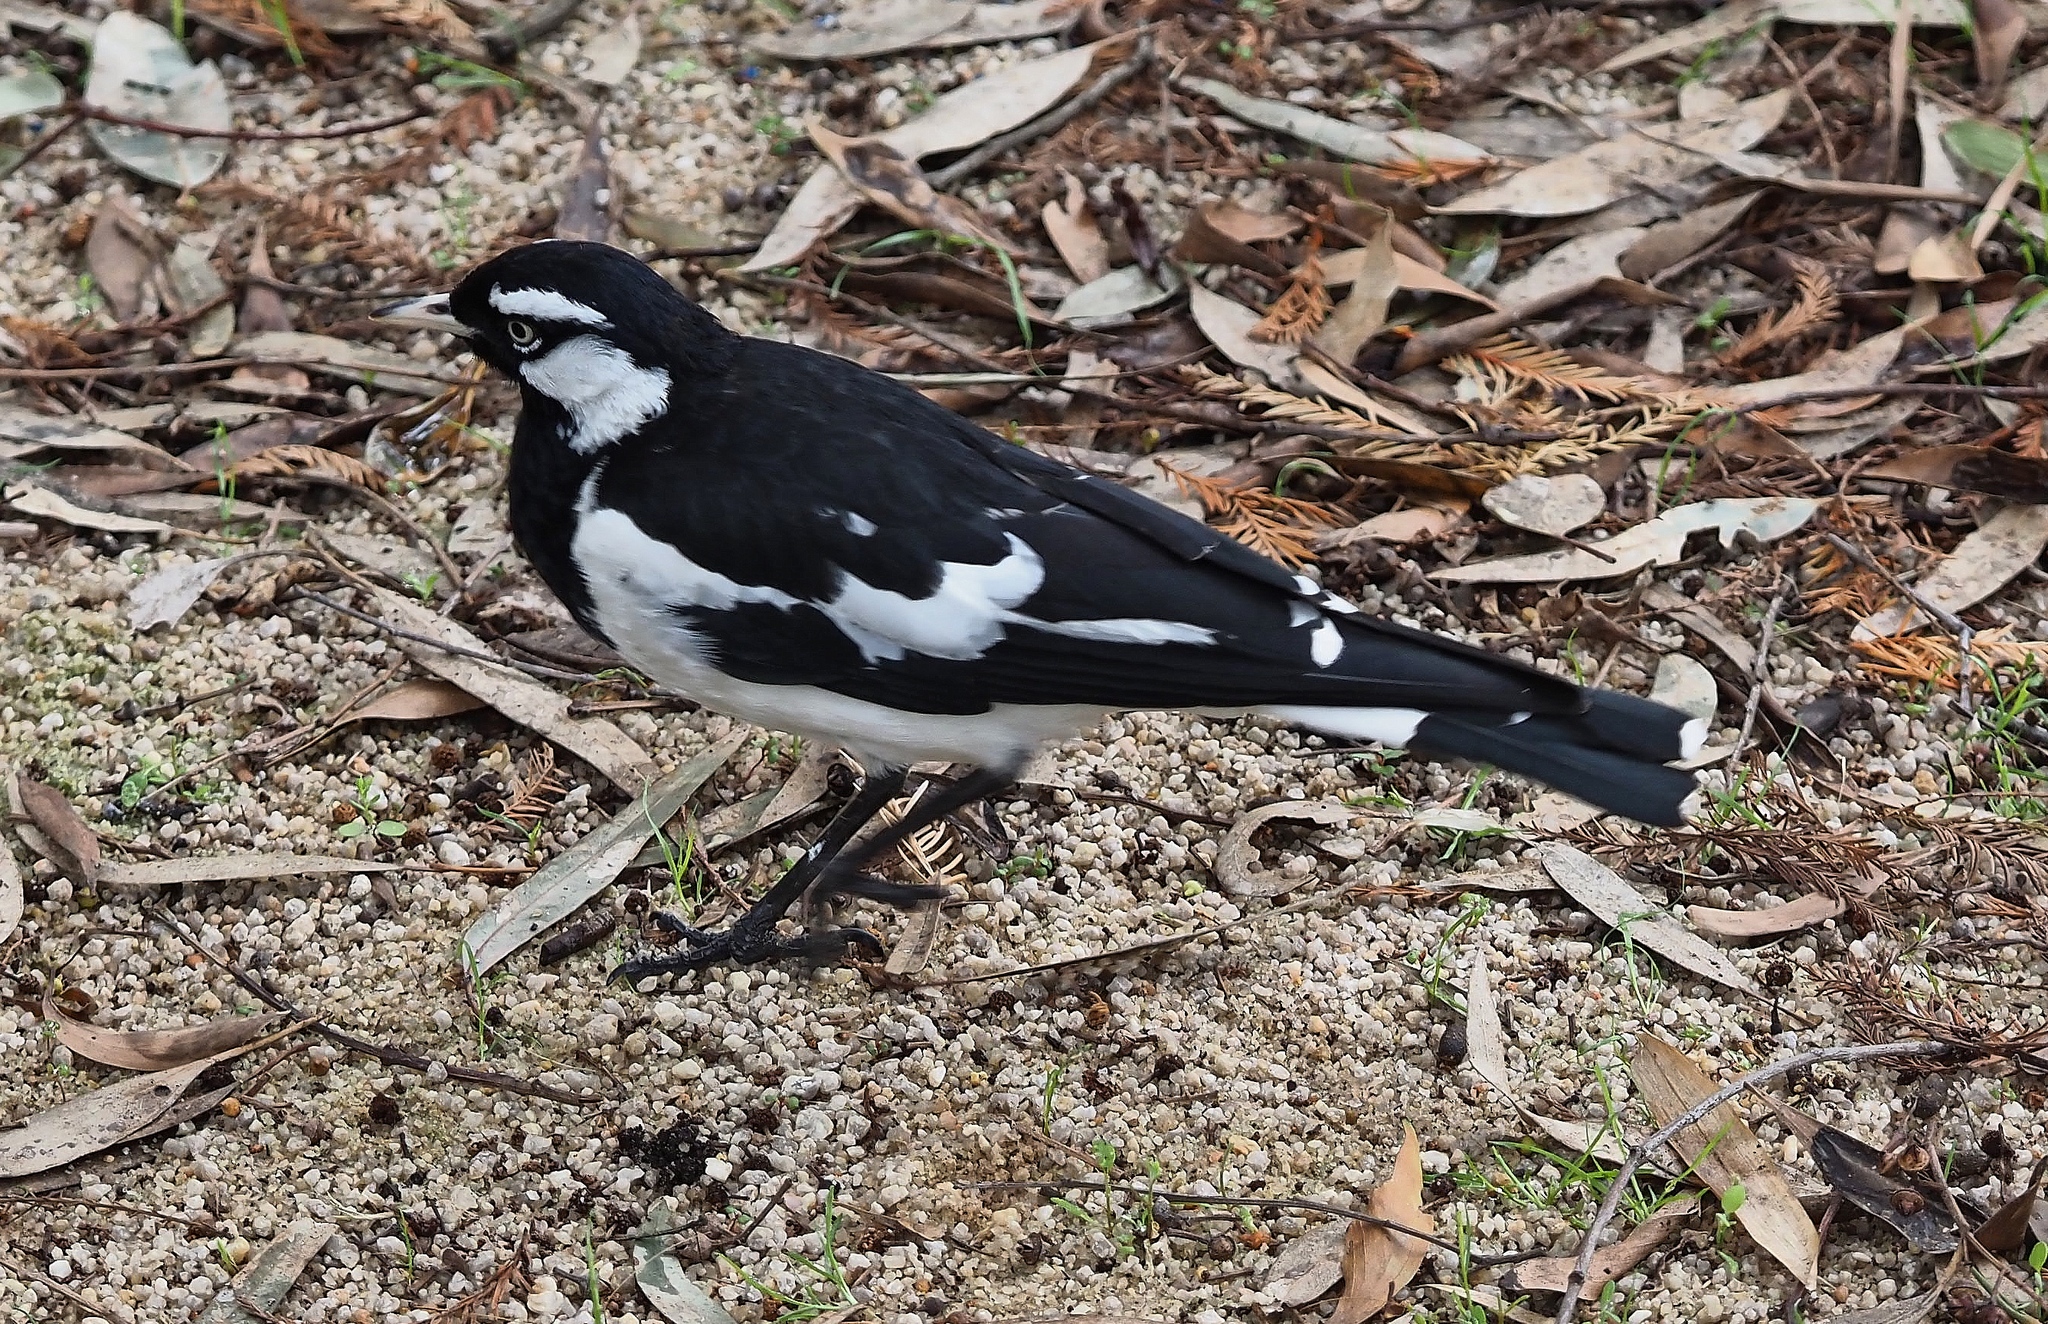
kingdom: Animalia
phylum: Chordata
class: Aves
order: Passeriformes
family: Monarchidae
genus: Grallina
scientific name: Grallina cyanoleuca
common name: Magpie-lark
